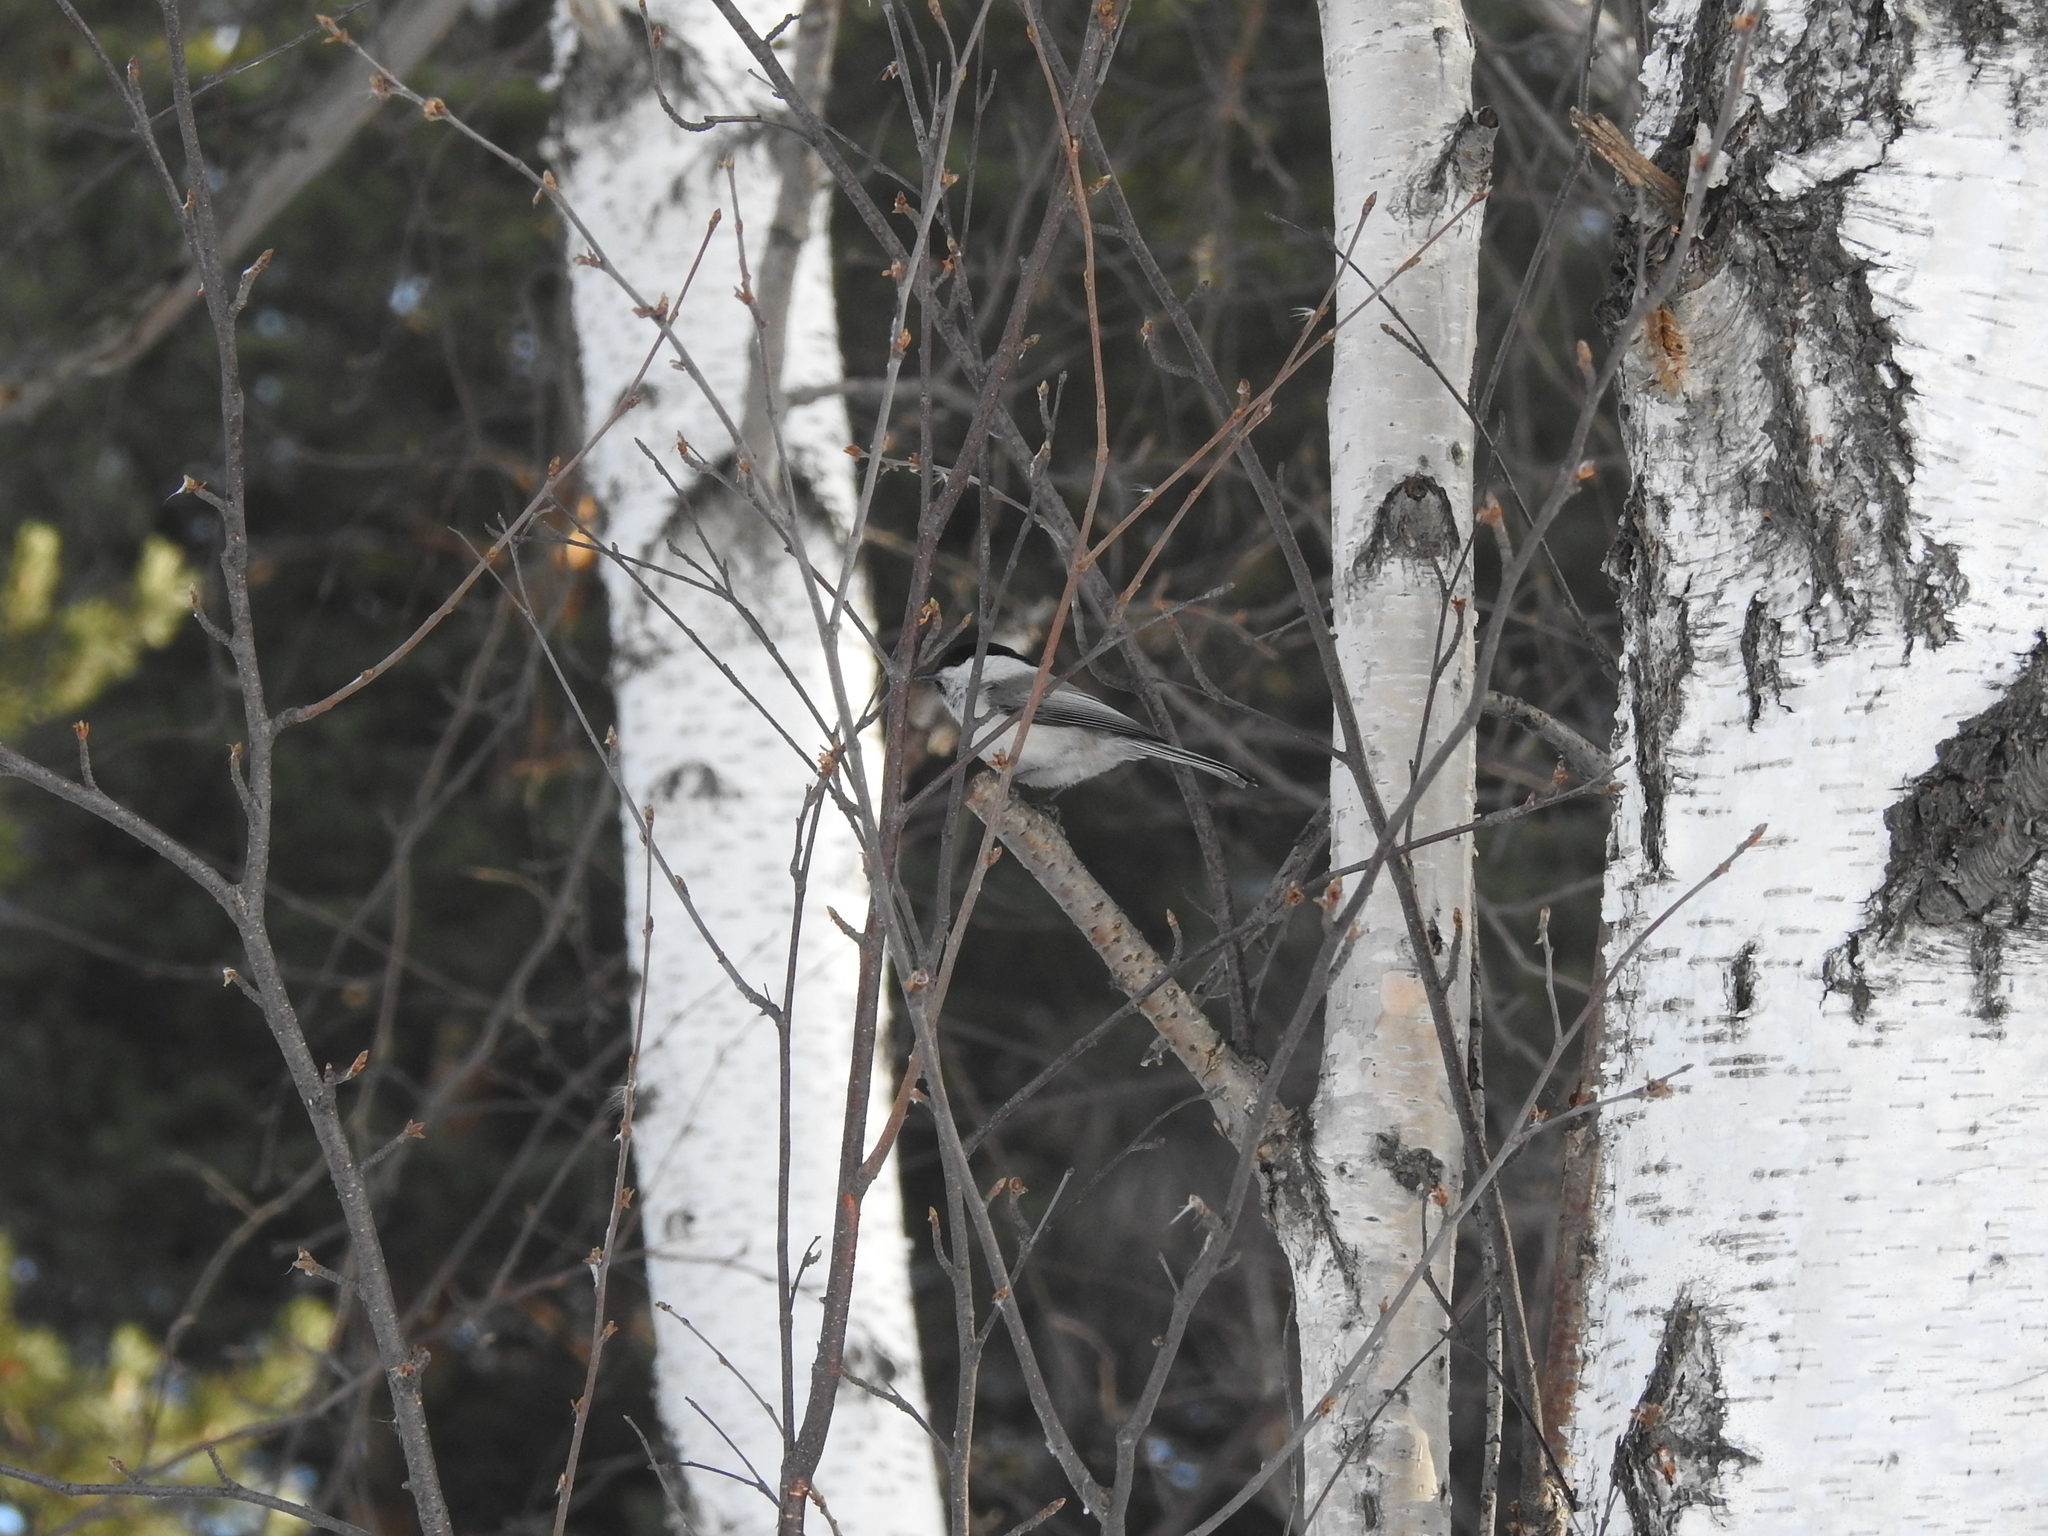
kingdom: Animalia
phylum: Chordata
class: Aves
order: Passeriformes
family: Paridae
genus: Poecile
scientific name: Poecile montanus
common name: Willow tit
